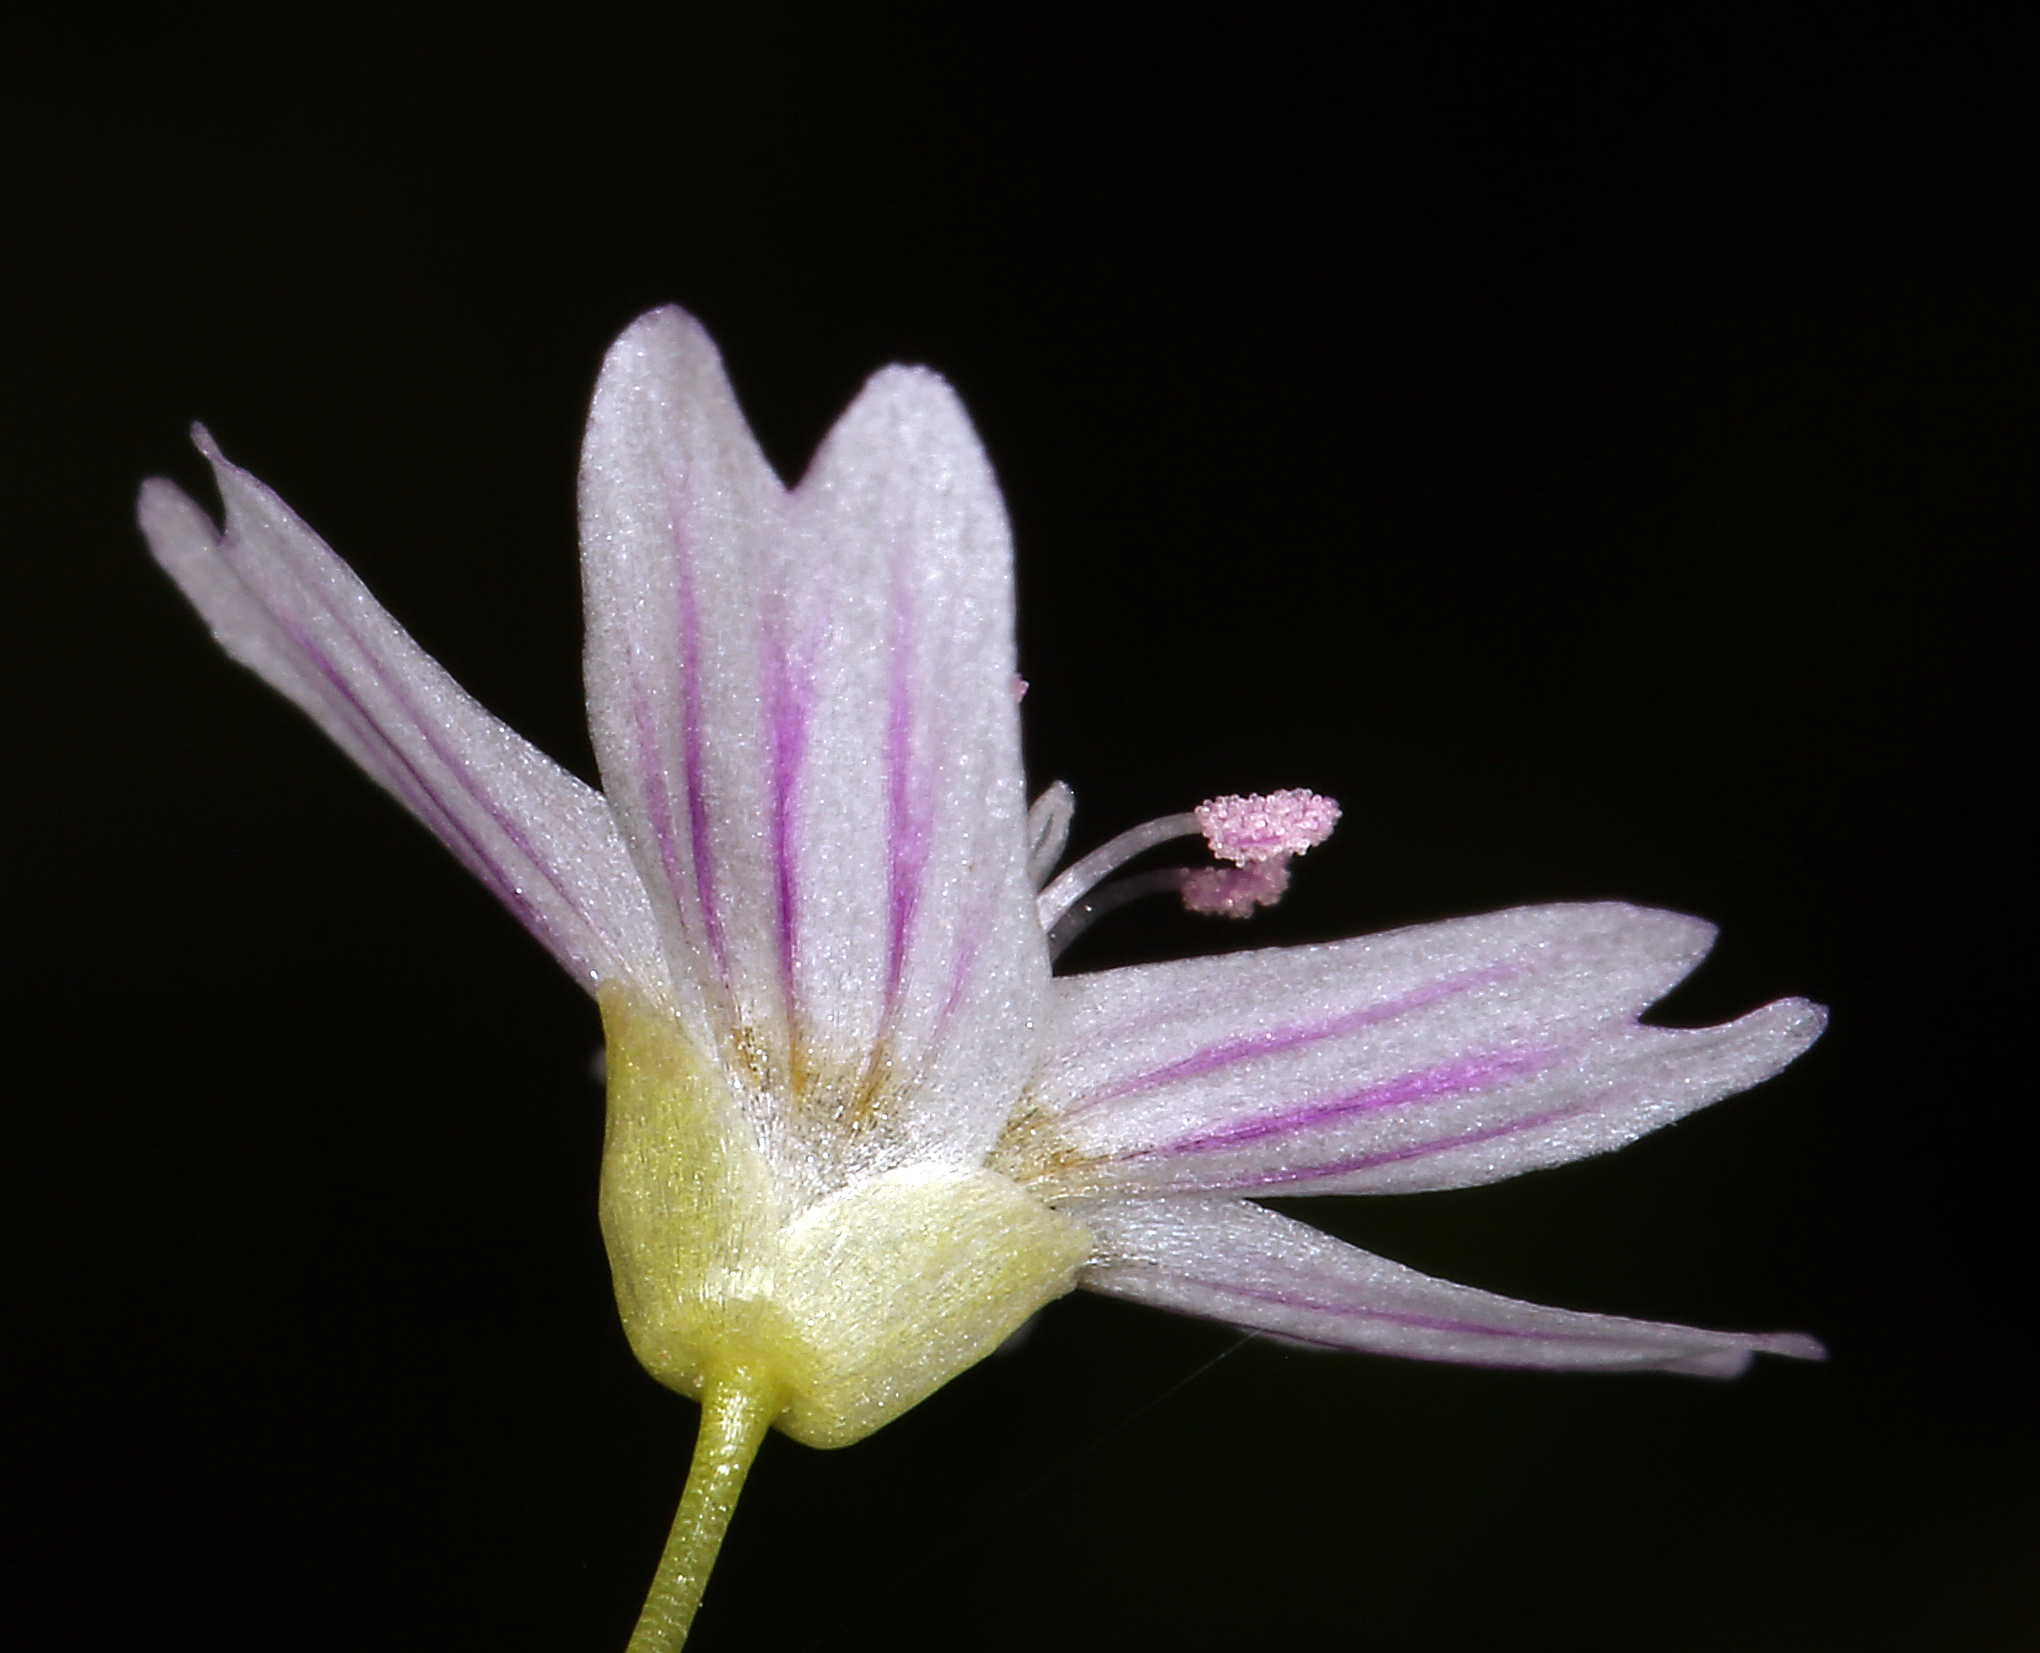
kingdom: Plantae
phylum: Tracheophyta
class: Magnoliopsida
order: Caryophyllales
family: Montiaceae
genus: Claytonia
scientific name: Claytonia sibirica
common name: Pink purslane
